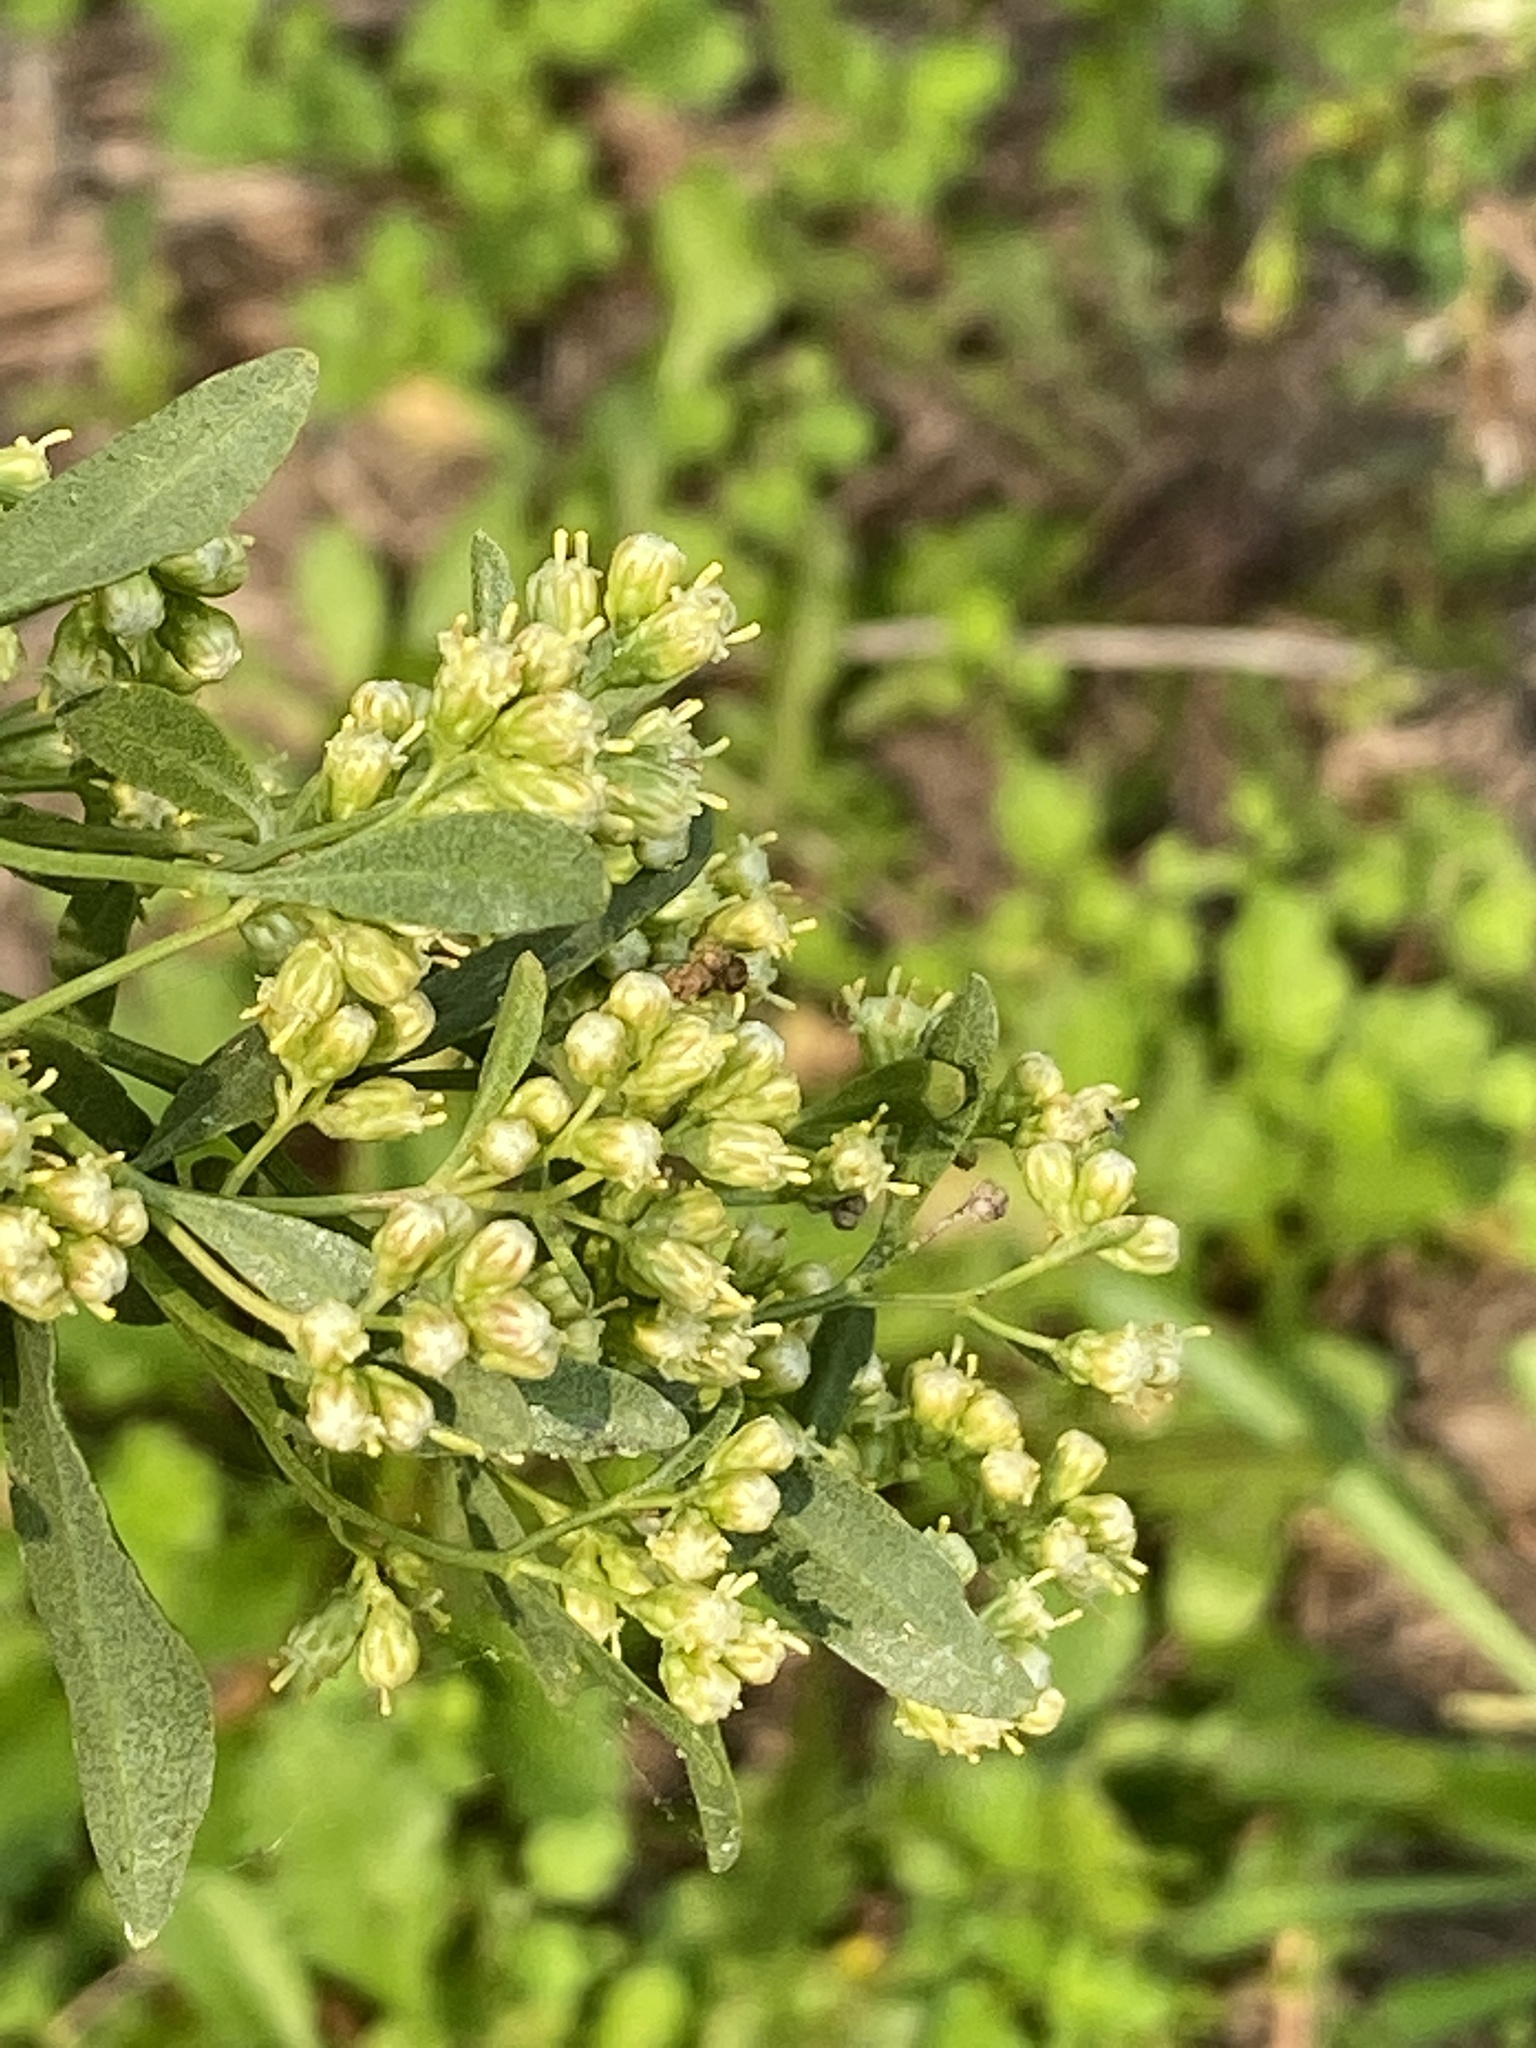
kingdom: Plantae
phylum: Tracheophyta
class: Magnoliopsida
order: Asterales
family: Asteraceae
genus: Baccharis
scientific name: Baccharis halimifolia
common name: Eastern baccharis
